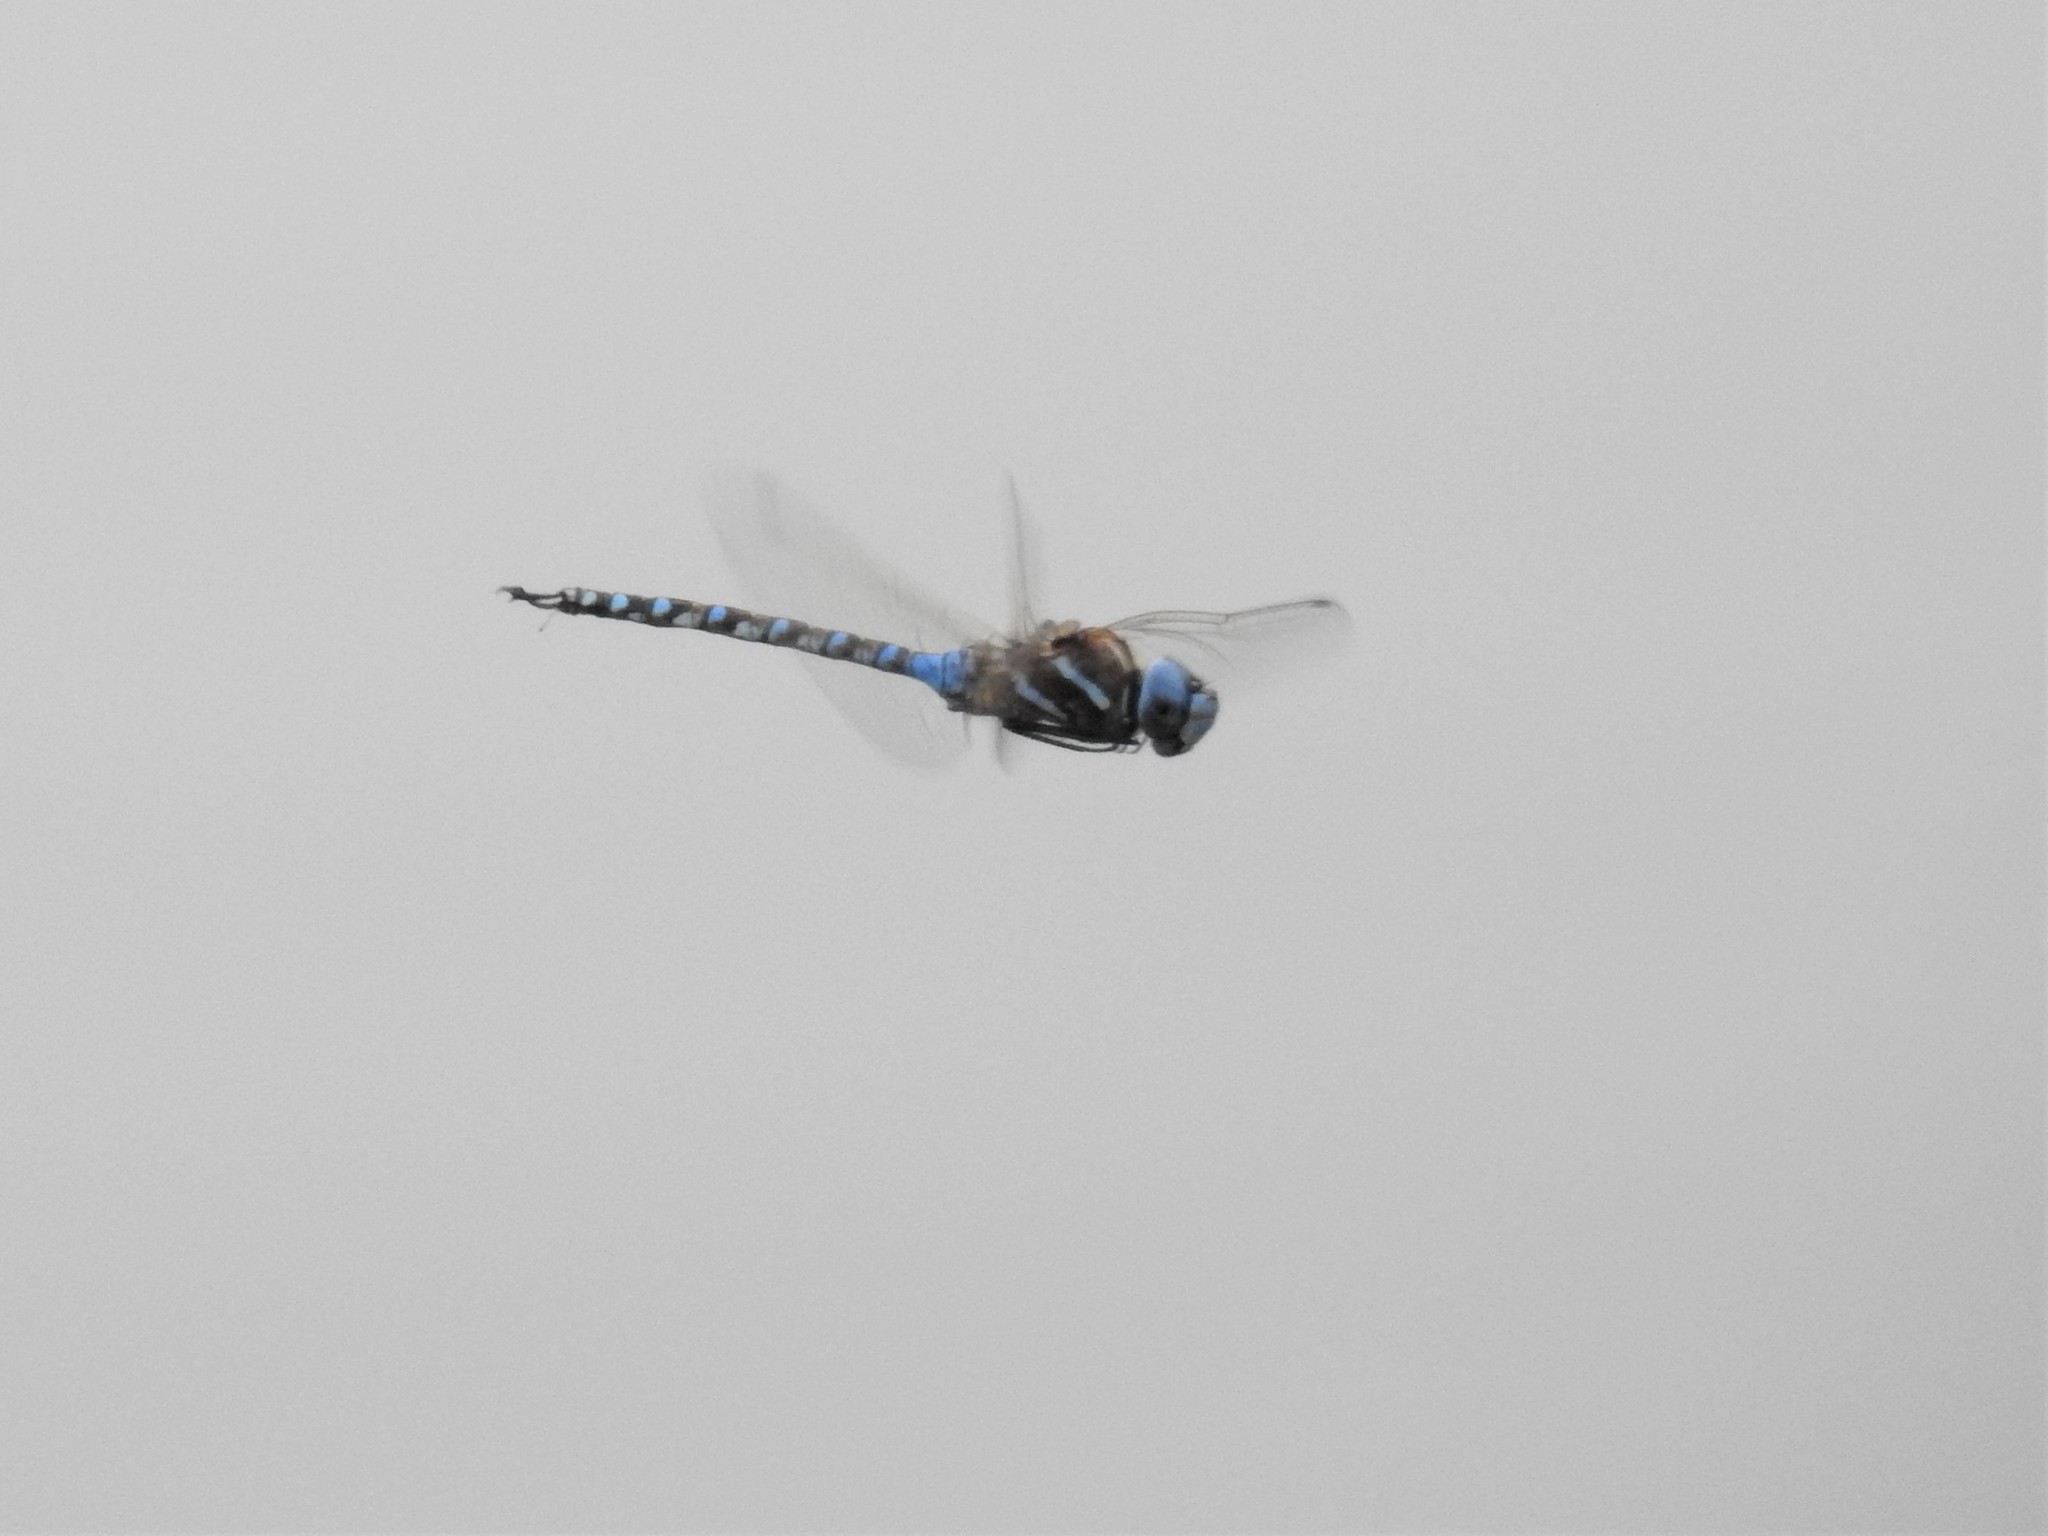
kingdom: Animalia
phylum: Arthropoda
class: Insecta
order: Odonata
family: Aeshnidae
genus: Rhionaeschna
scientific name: Rhionaeschna multicolor
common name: Blue-eyed darner
